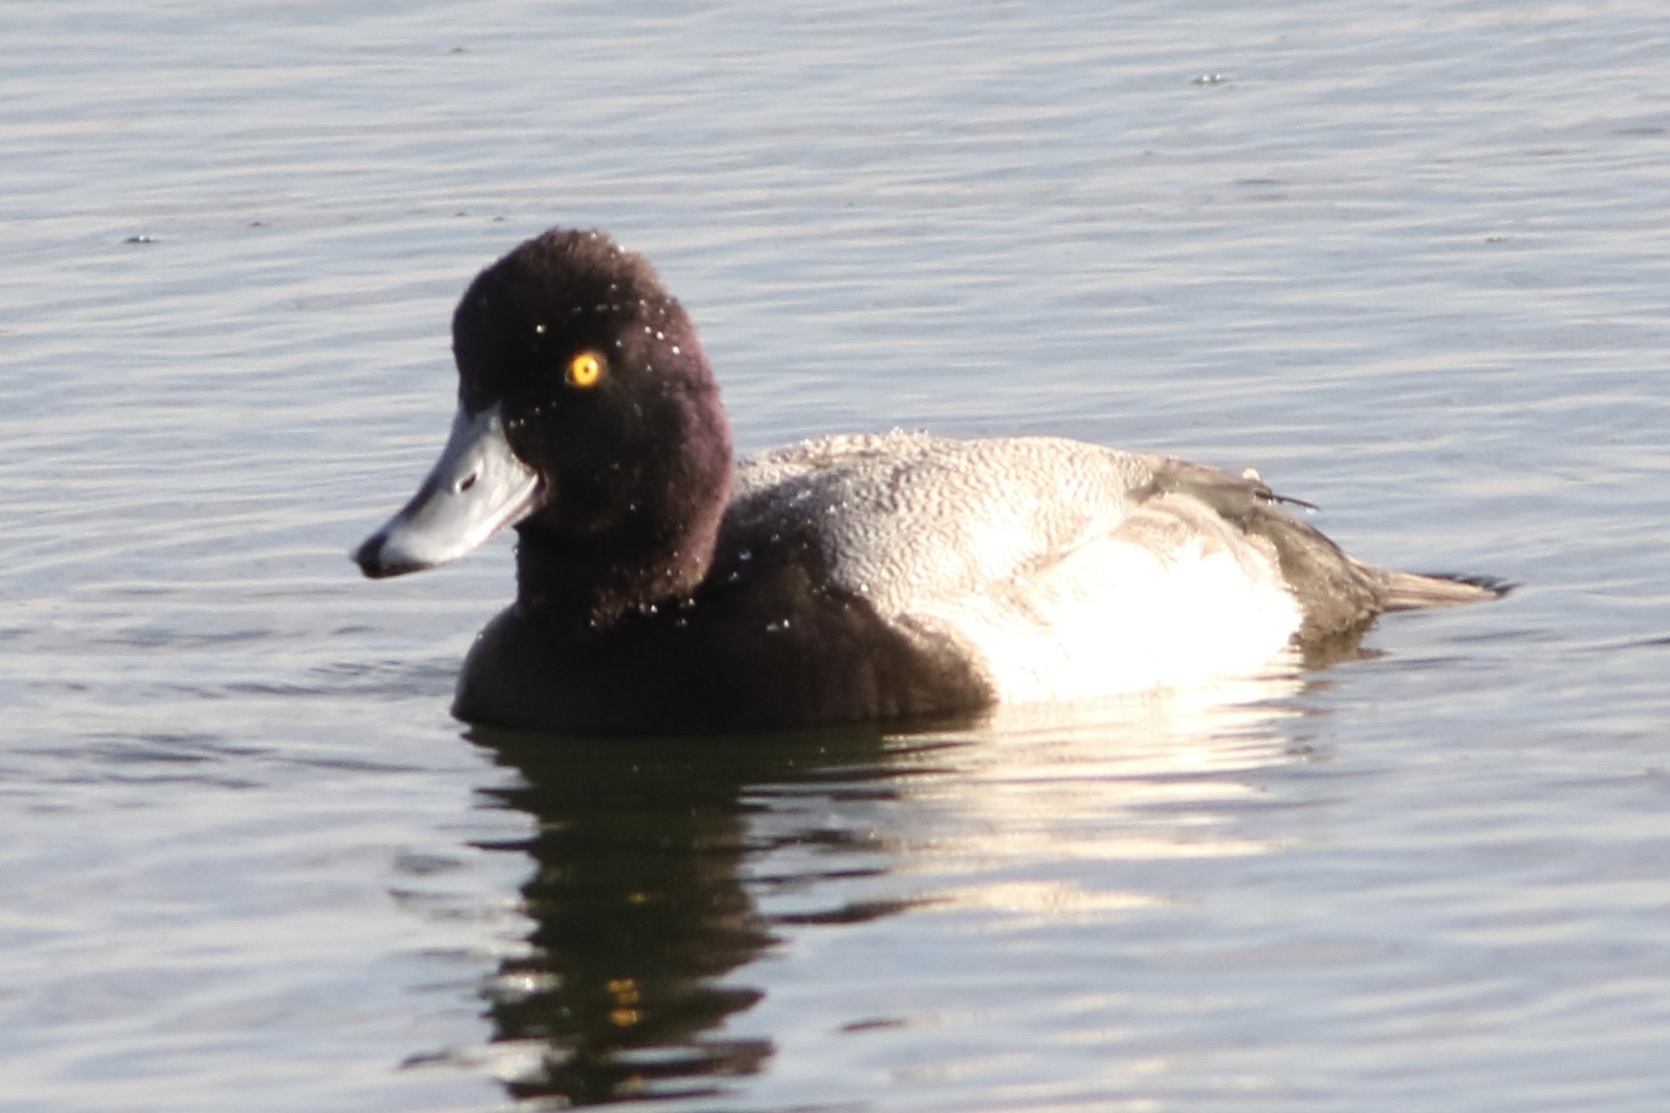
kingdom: Animalia
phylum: Chordata
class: Aves
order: Anseriformes
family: Anatidae
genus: Aythya
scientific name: Aythya affinis
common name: Lesser scaup
